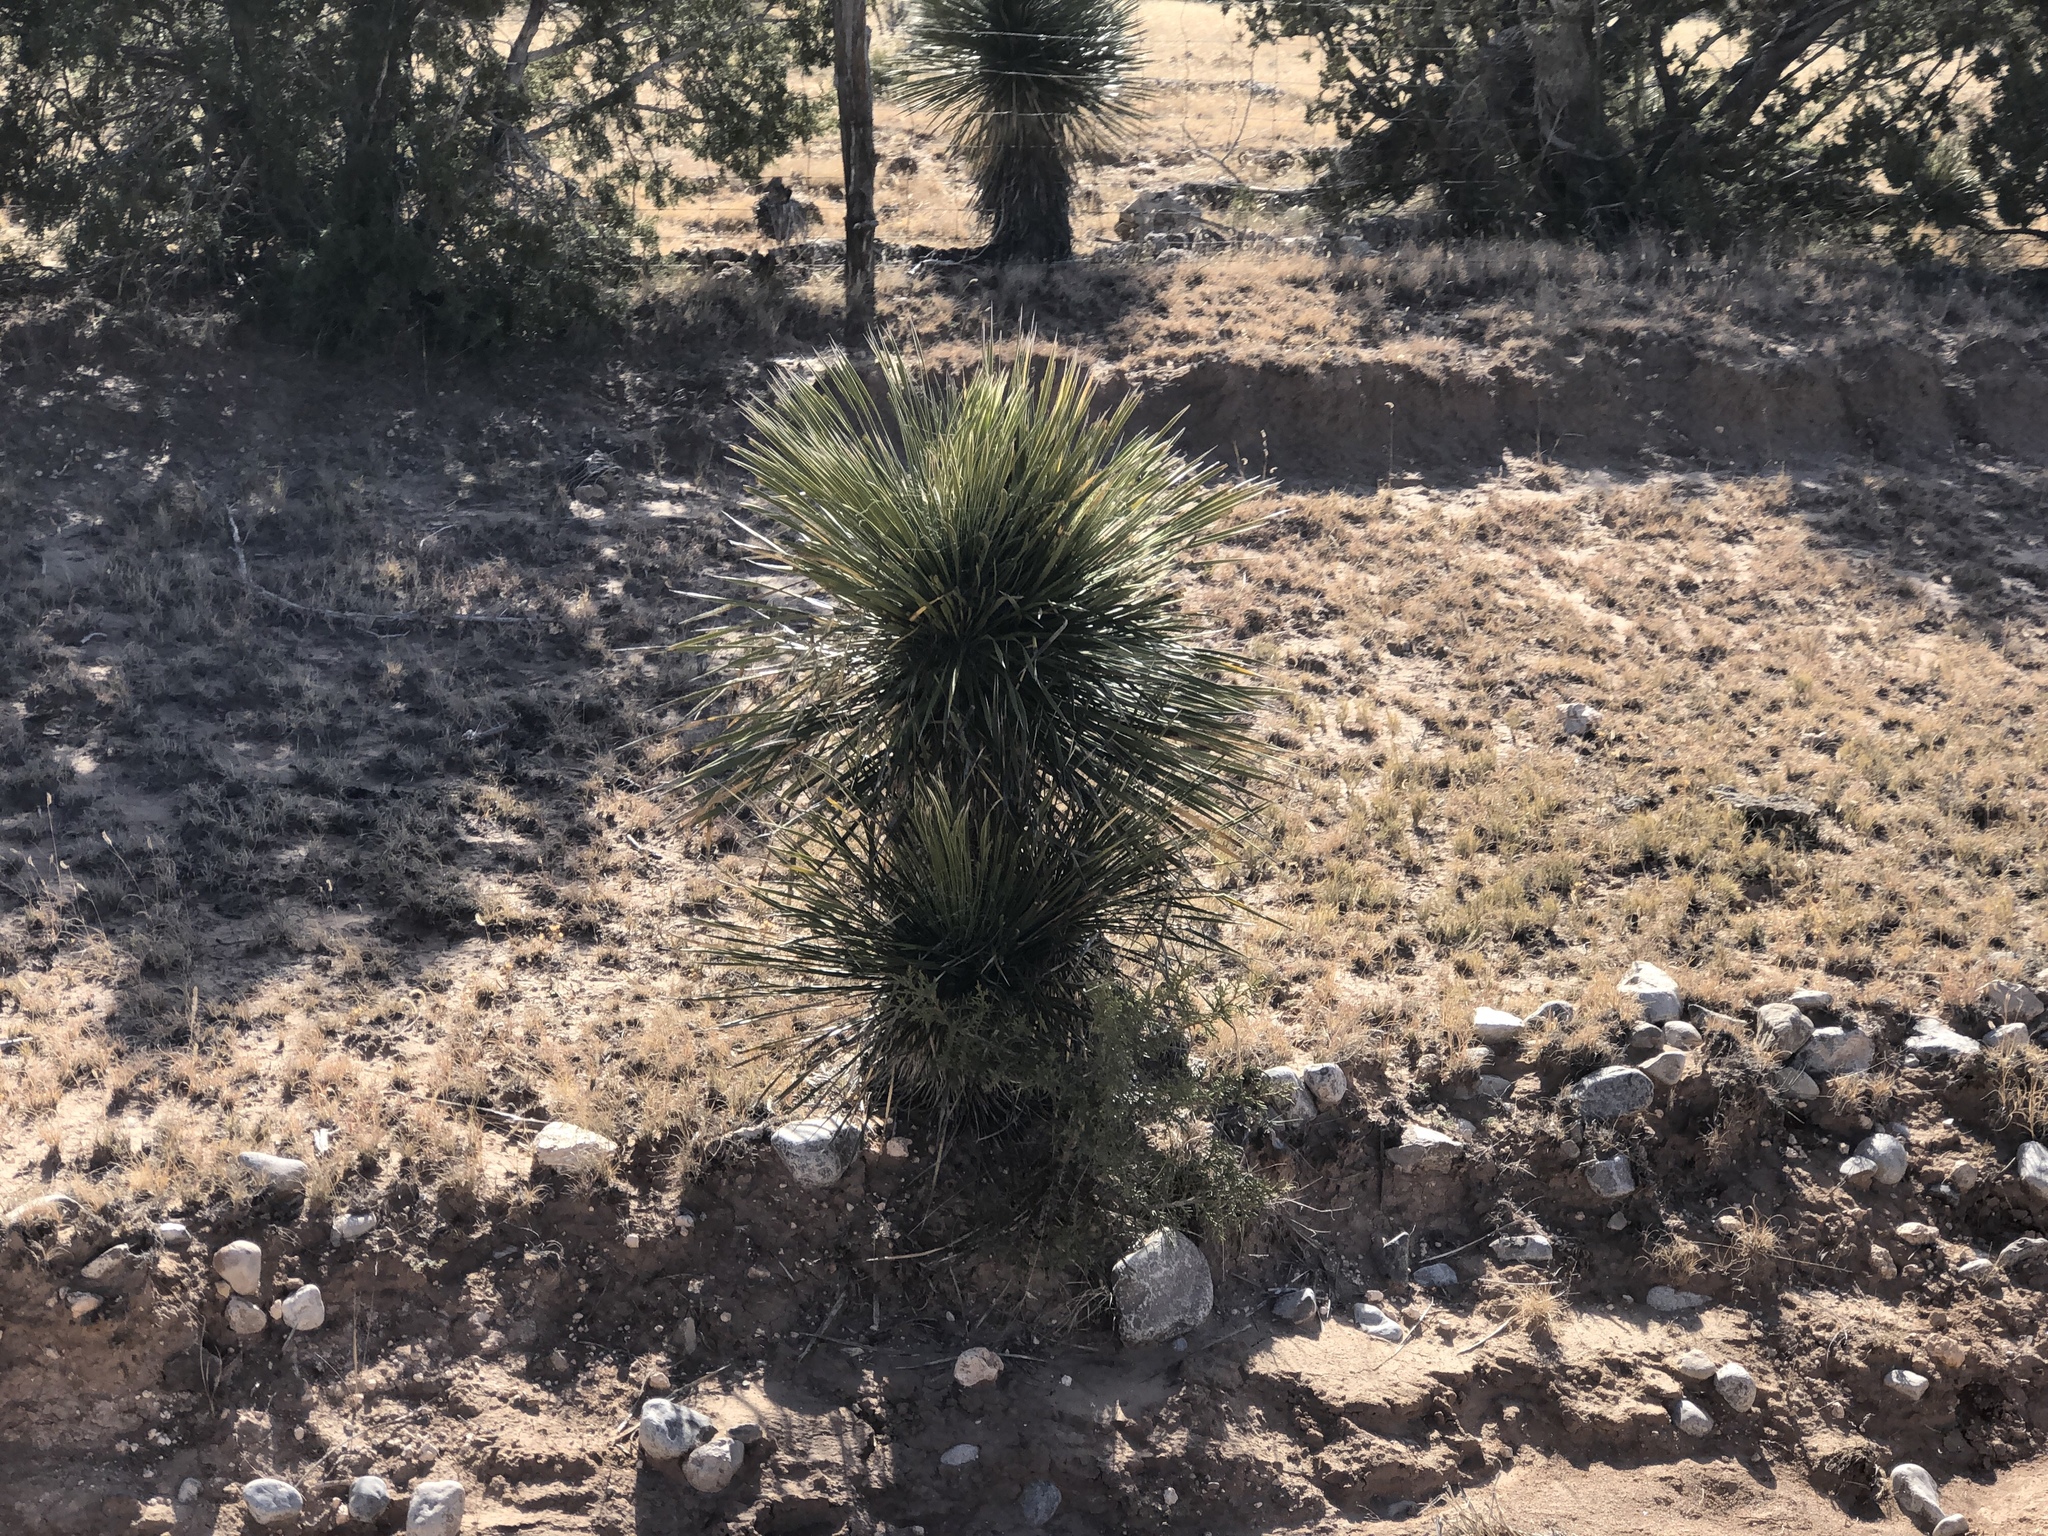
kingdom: Plantae
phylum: Tracheophyta
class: Liliopsida
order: Asparagales
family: Asparagaceae
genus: Yucca
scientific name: Yucca elata
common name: Palmella
